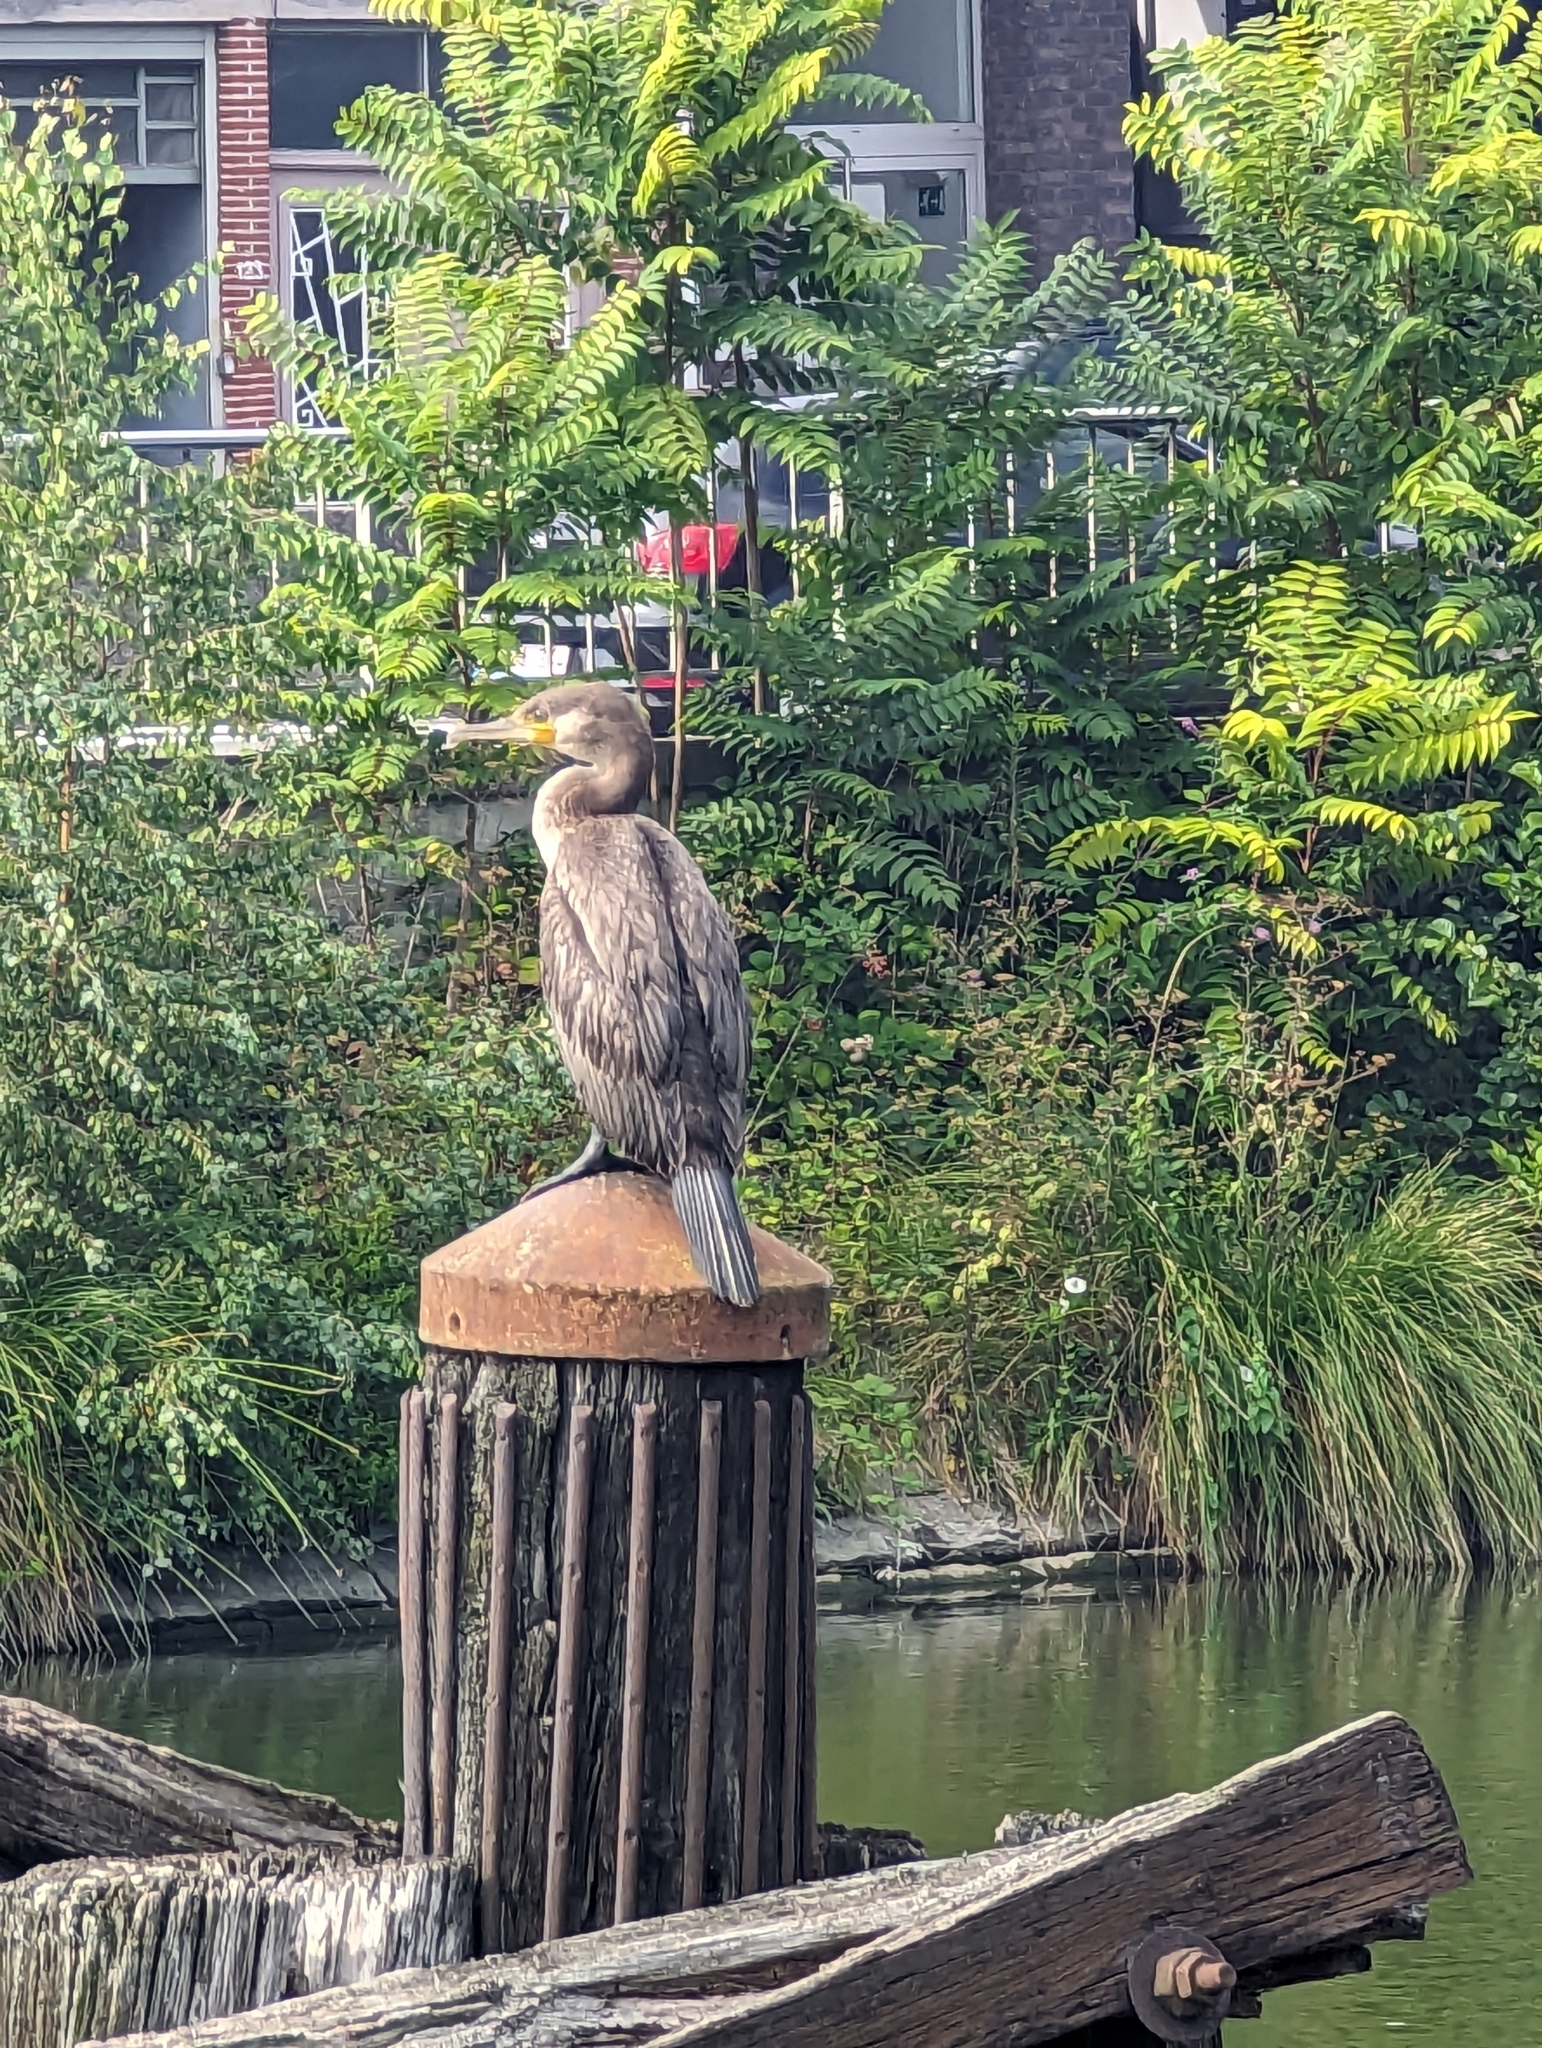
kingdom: Animalia
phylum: Chordata
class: Aves
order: Suliformes
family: Phalacrocoracidae
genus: Phalacrocorax
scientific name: Phalacrocorax carbo
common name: Great cormorant
